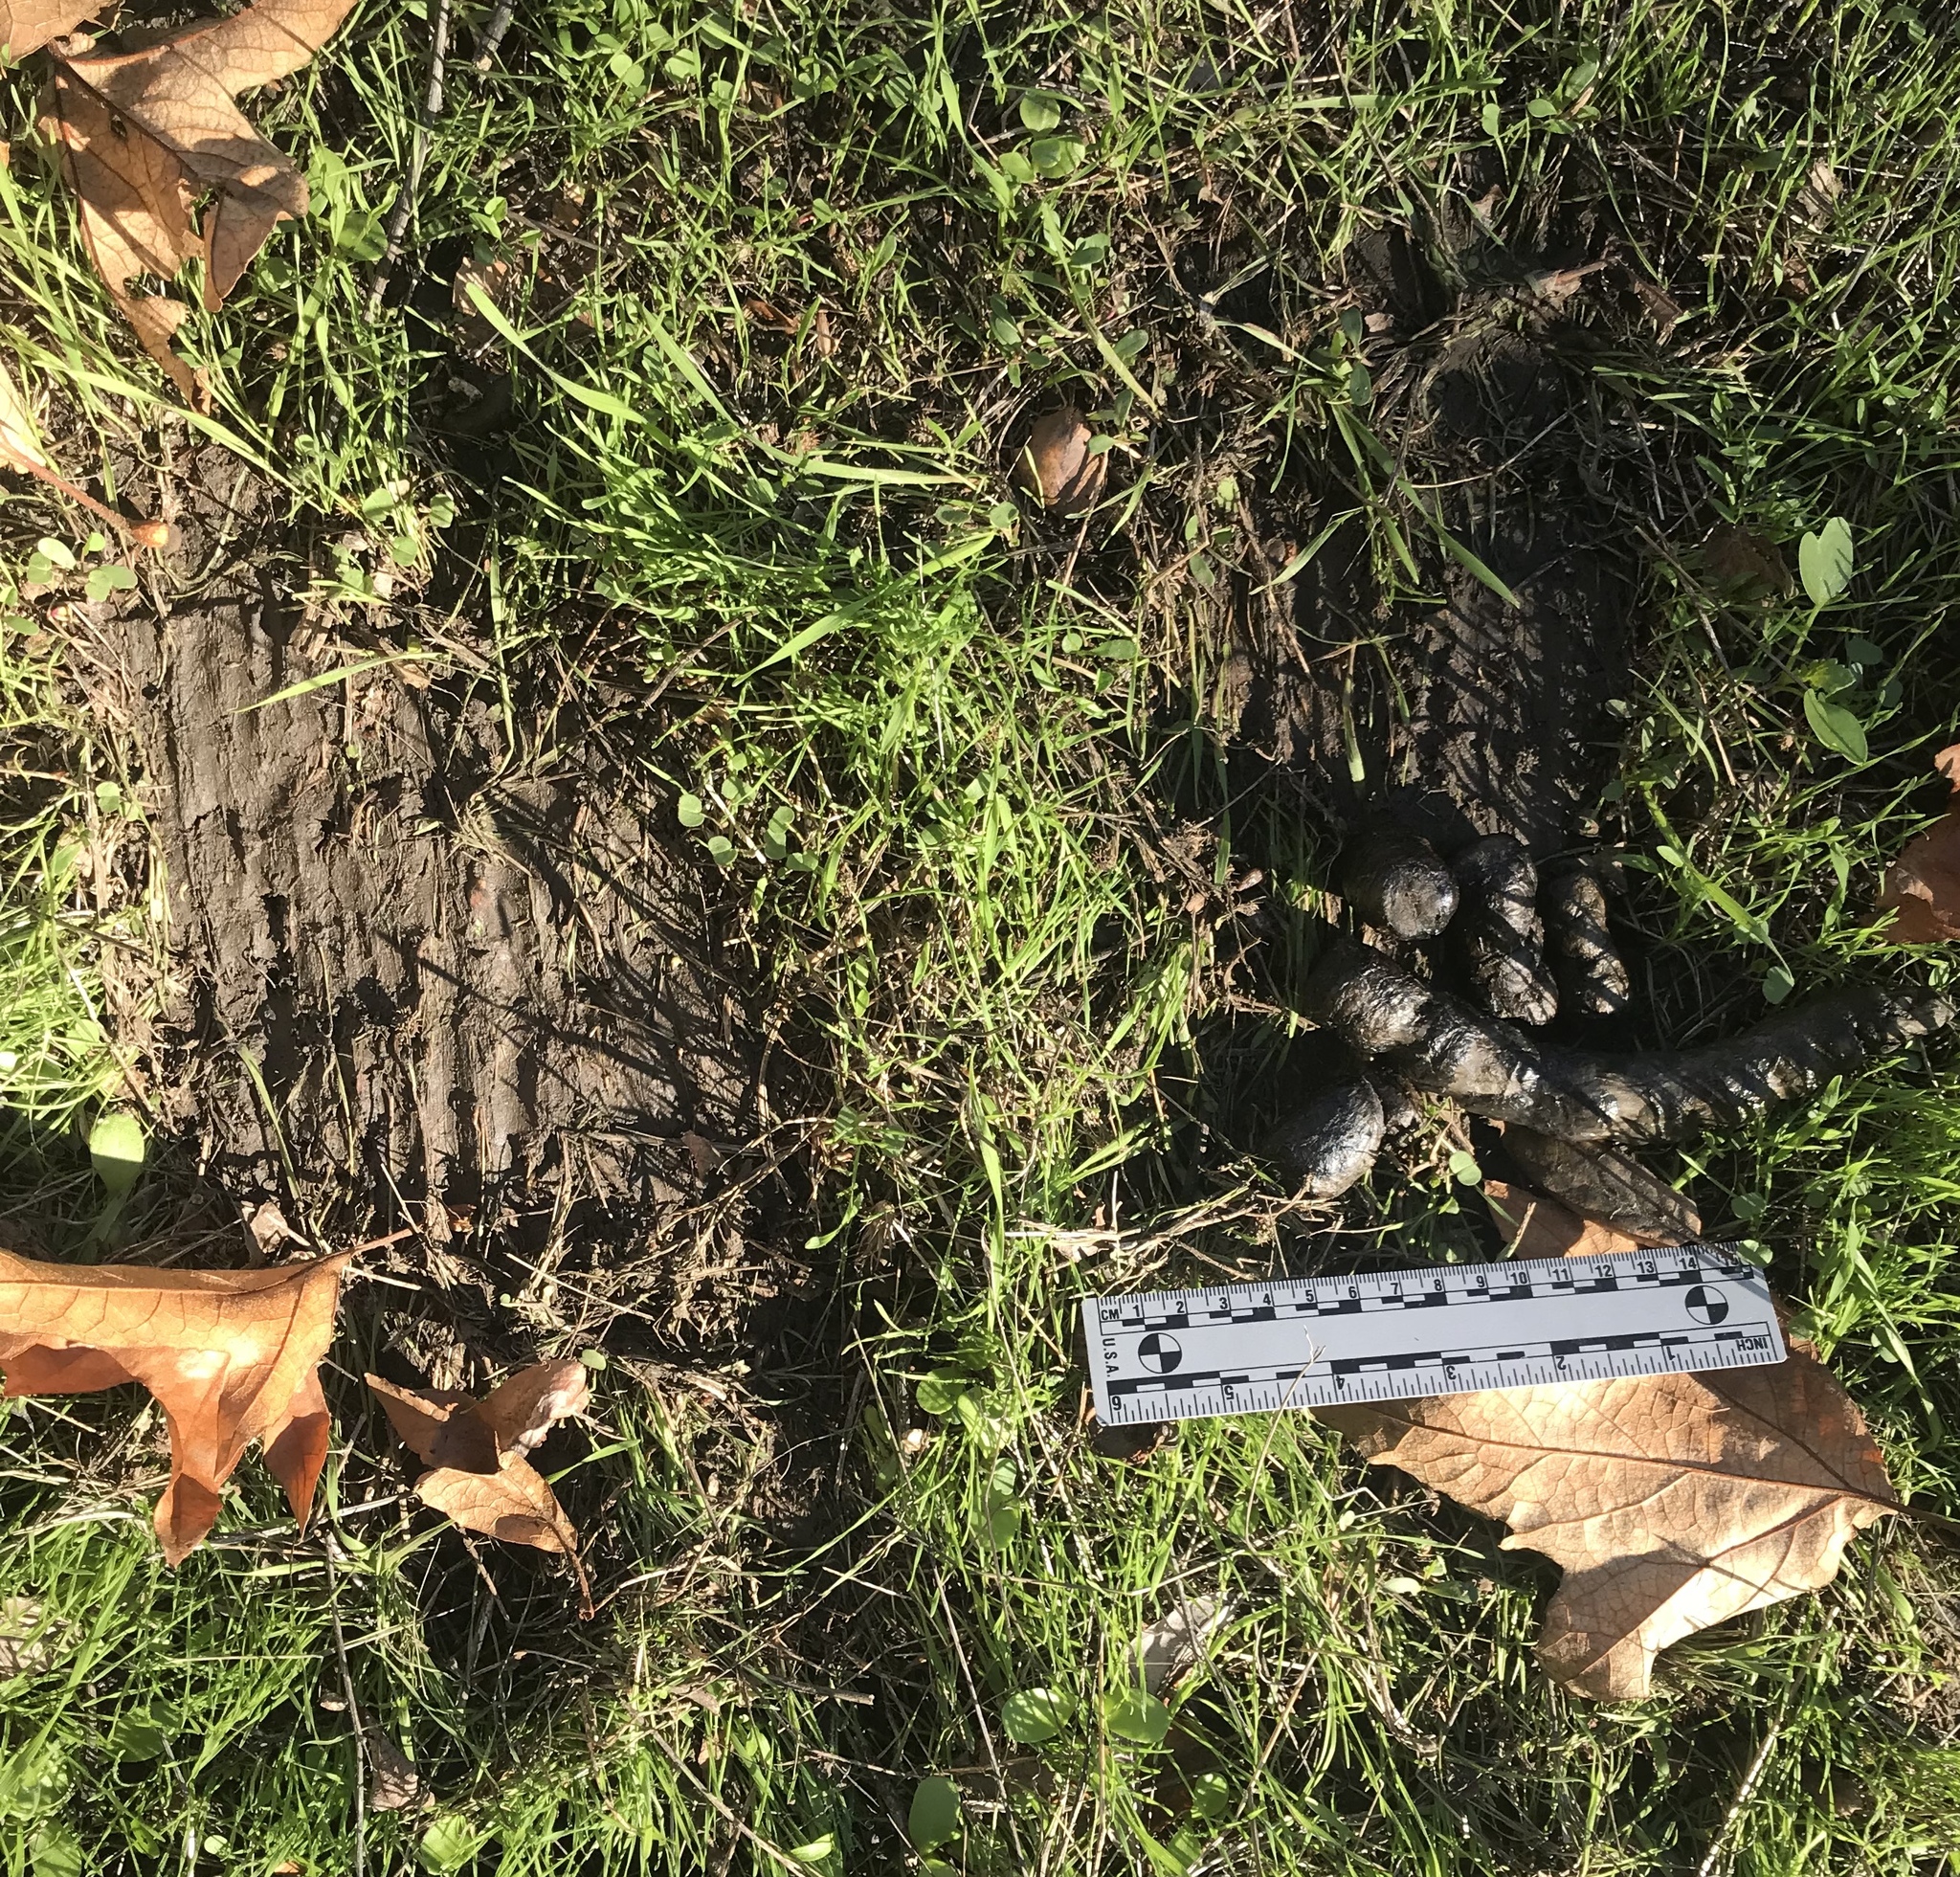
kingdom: Animalia
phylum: Chordata
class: Mammalia
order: Carnivora
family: Felidae
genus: Lynx
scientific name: Lynx rufus
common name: Bobcat
